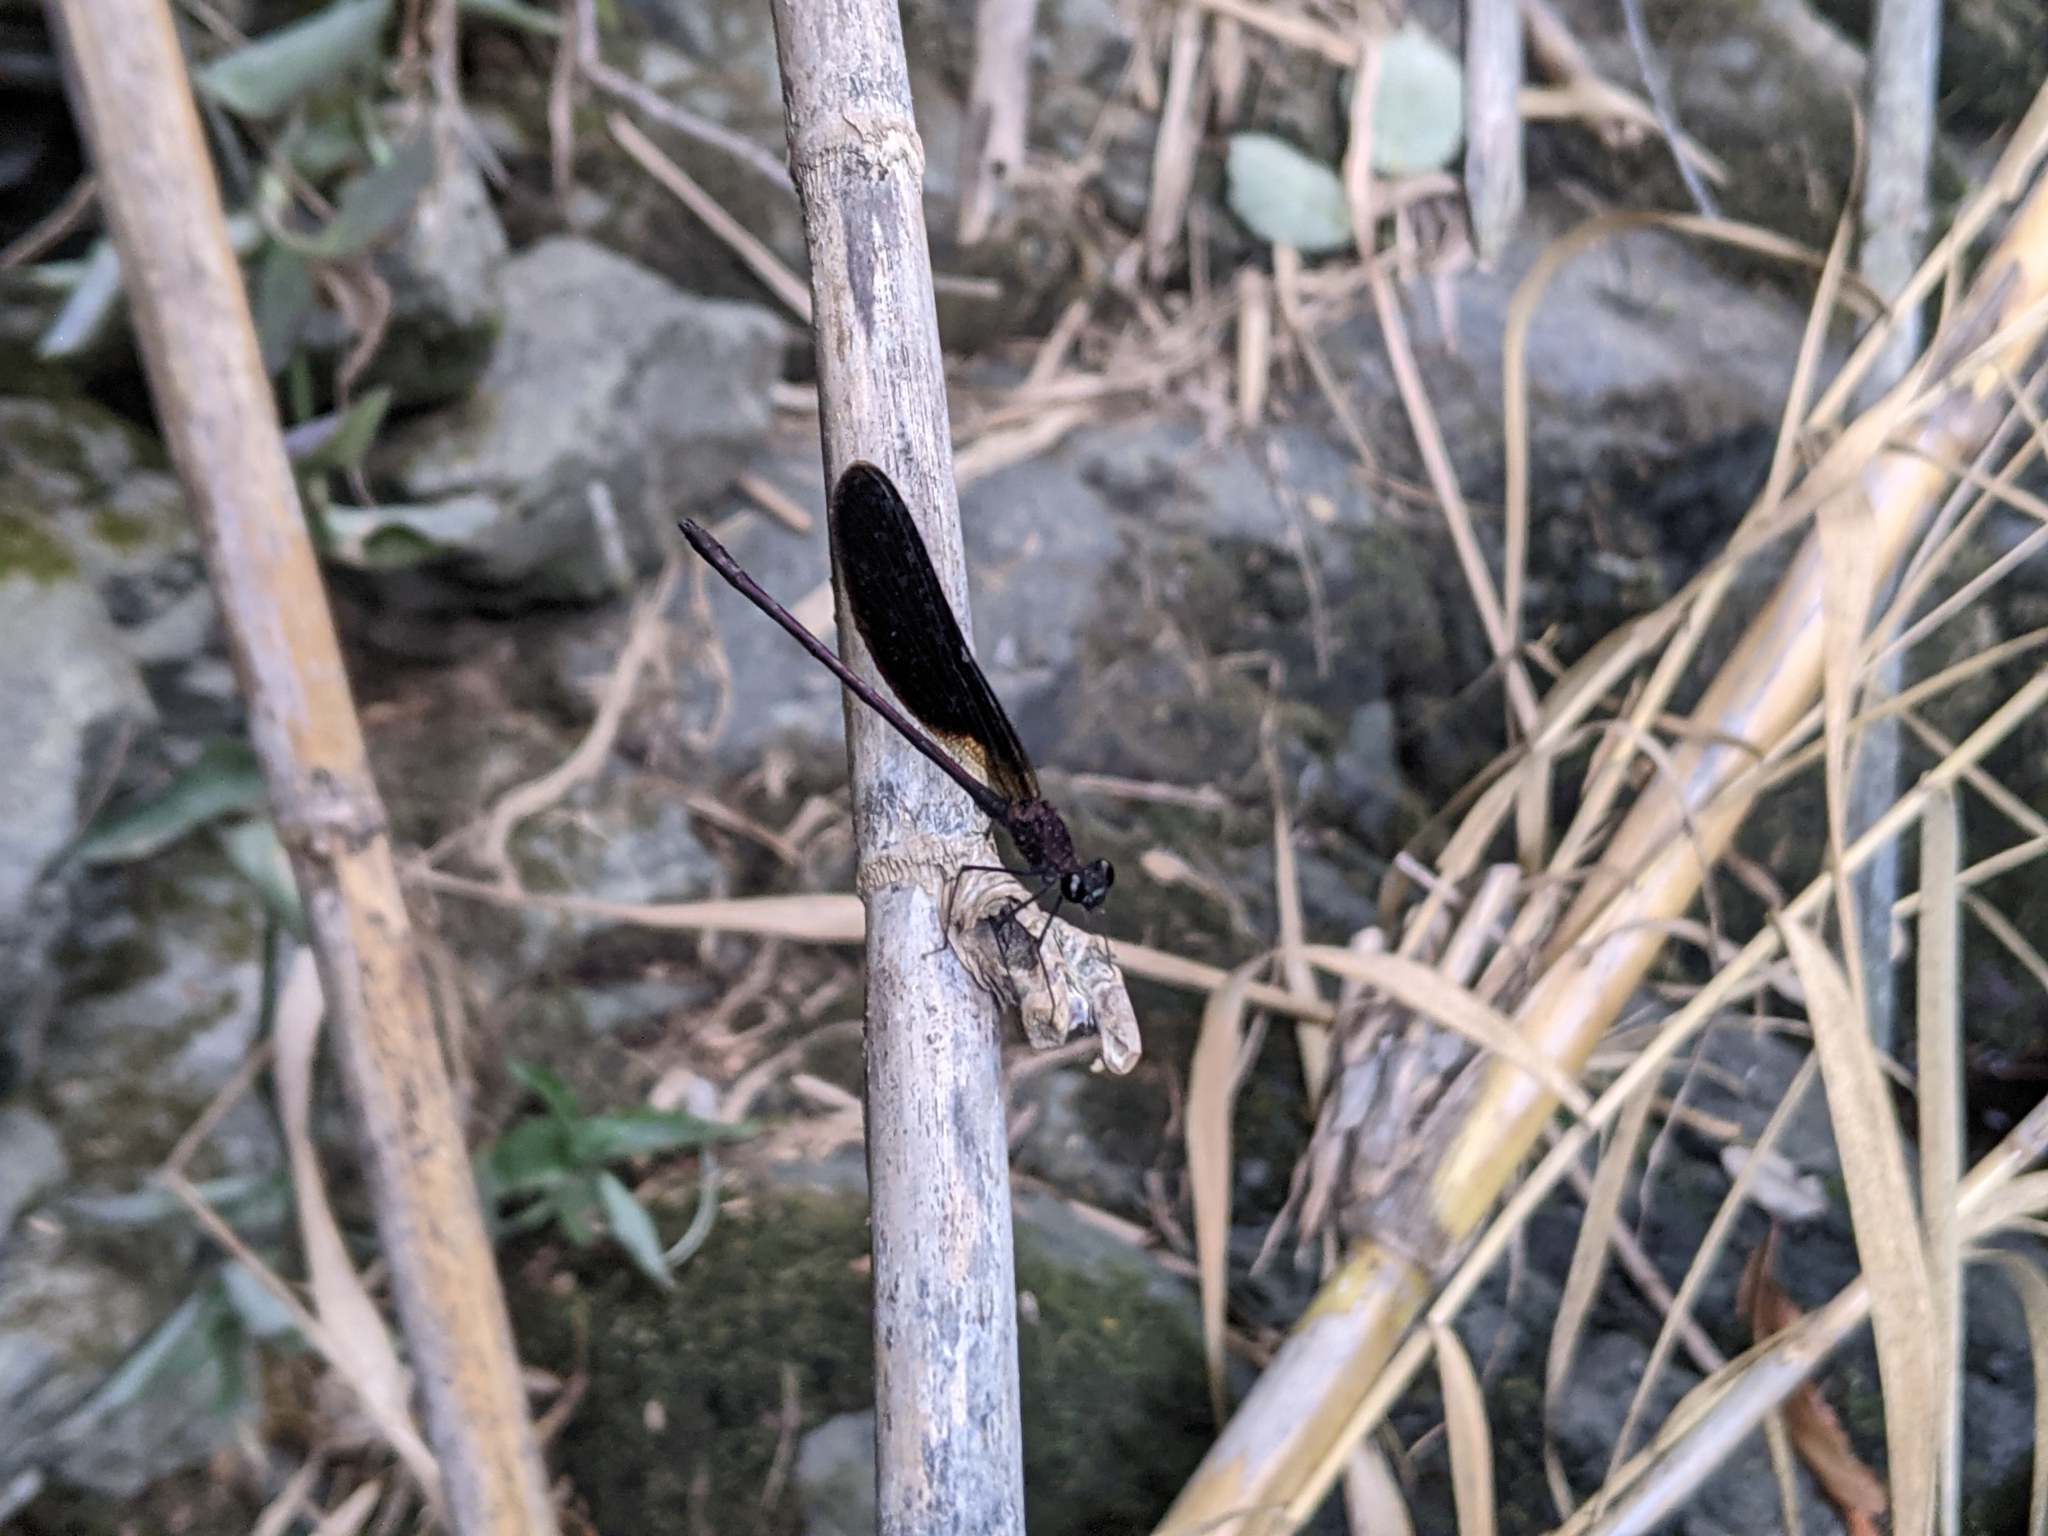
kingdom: Animalia
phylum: Arthropoda
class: Insecta
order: Odonata
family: Calopterygidae
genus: Calopteryx
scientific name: Calopteryx haemorrhoidalis
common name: Copper demoiselle
